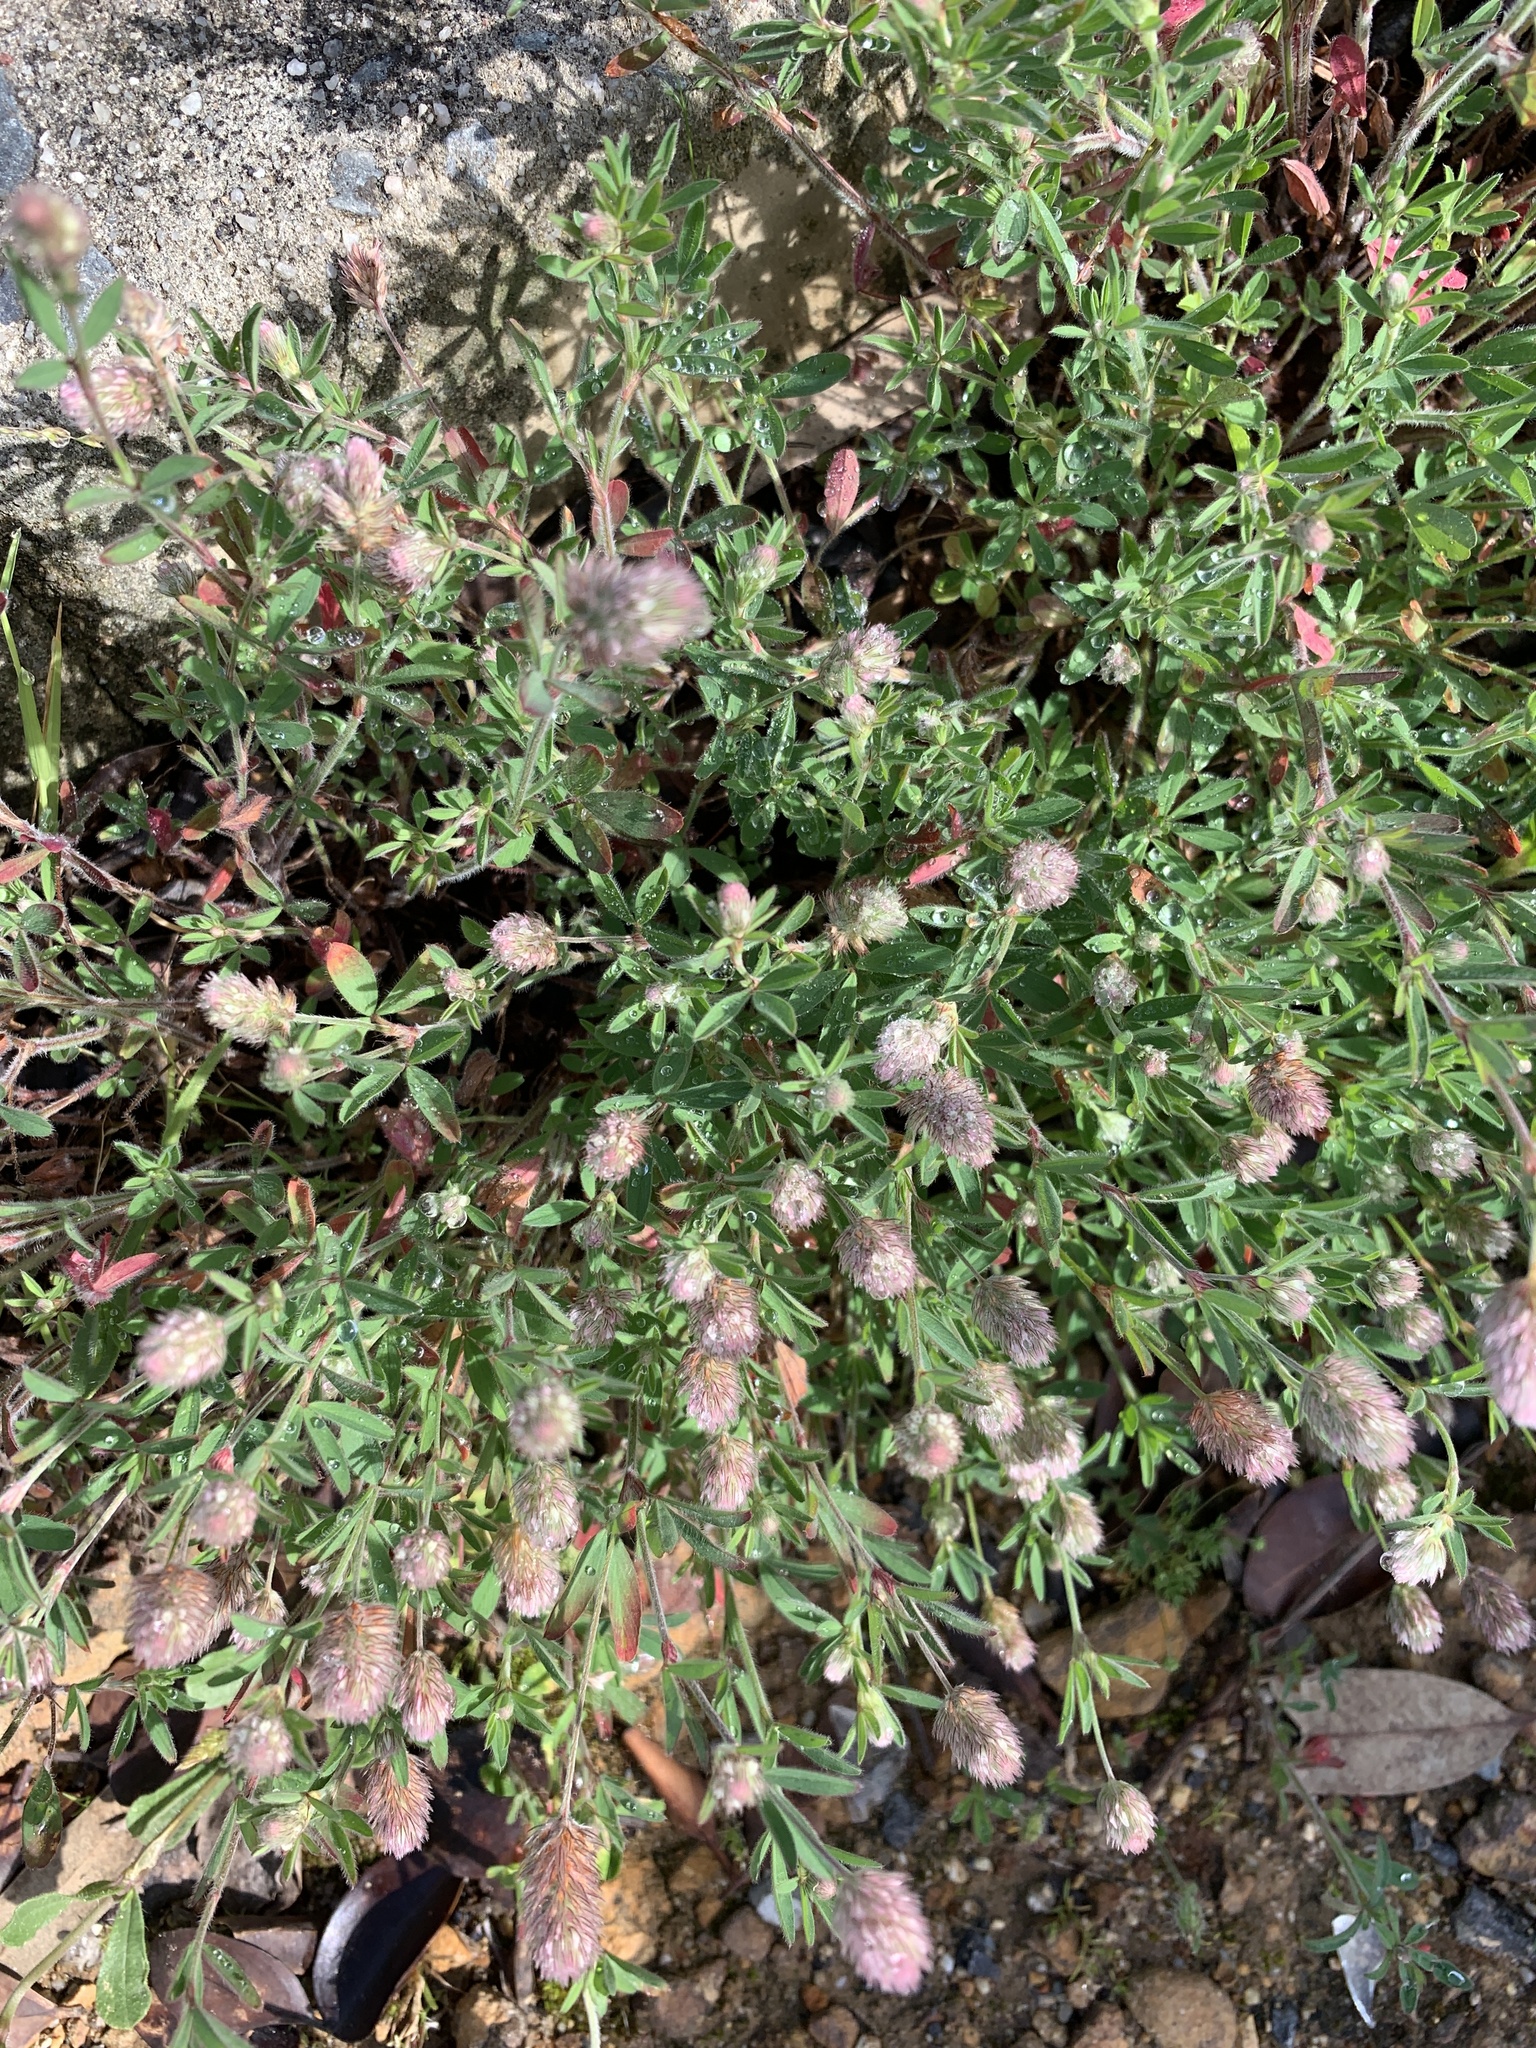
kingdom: Plantae
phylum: Tracheophyta
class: Magnoliopsida
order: Fabales
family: Fabaceae
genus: Trifolium
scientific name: Trifolium arvense
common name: Hare's-foot clover
